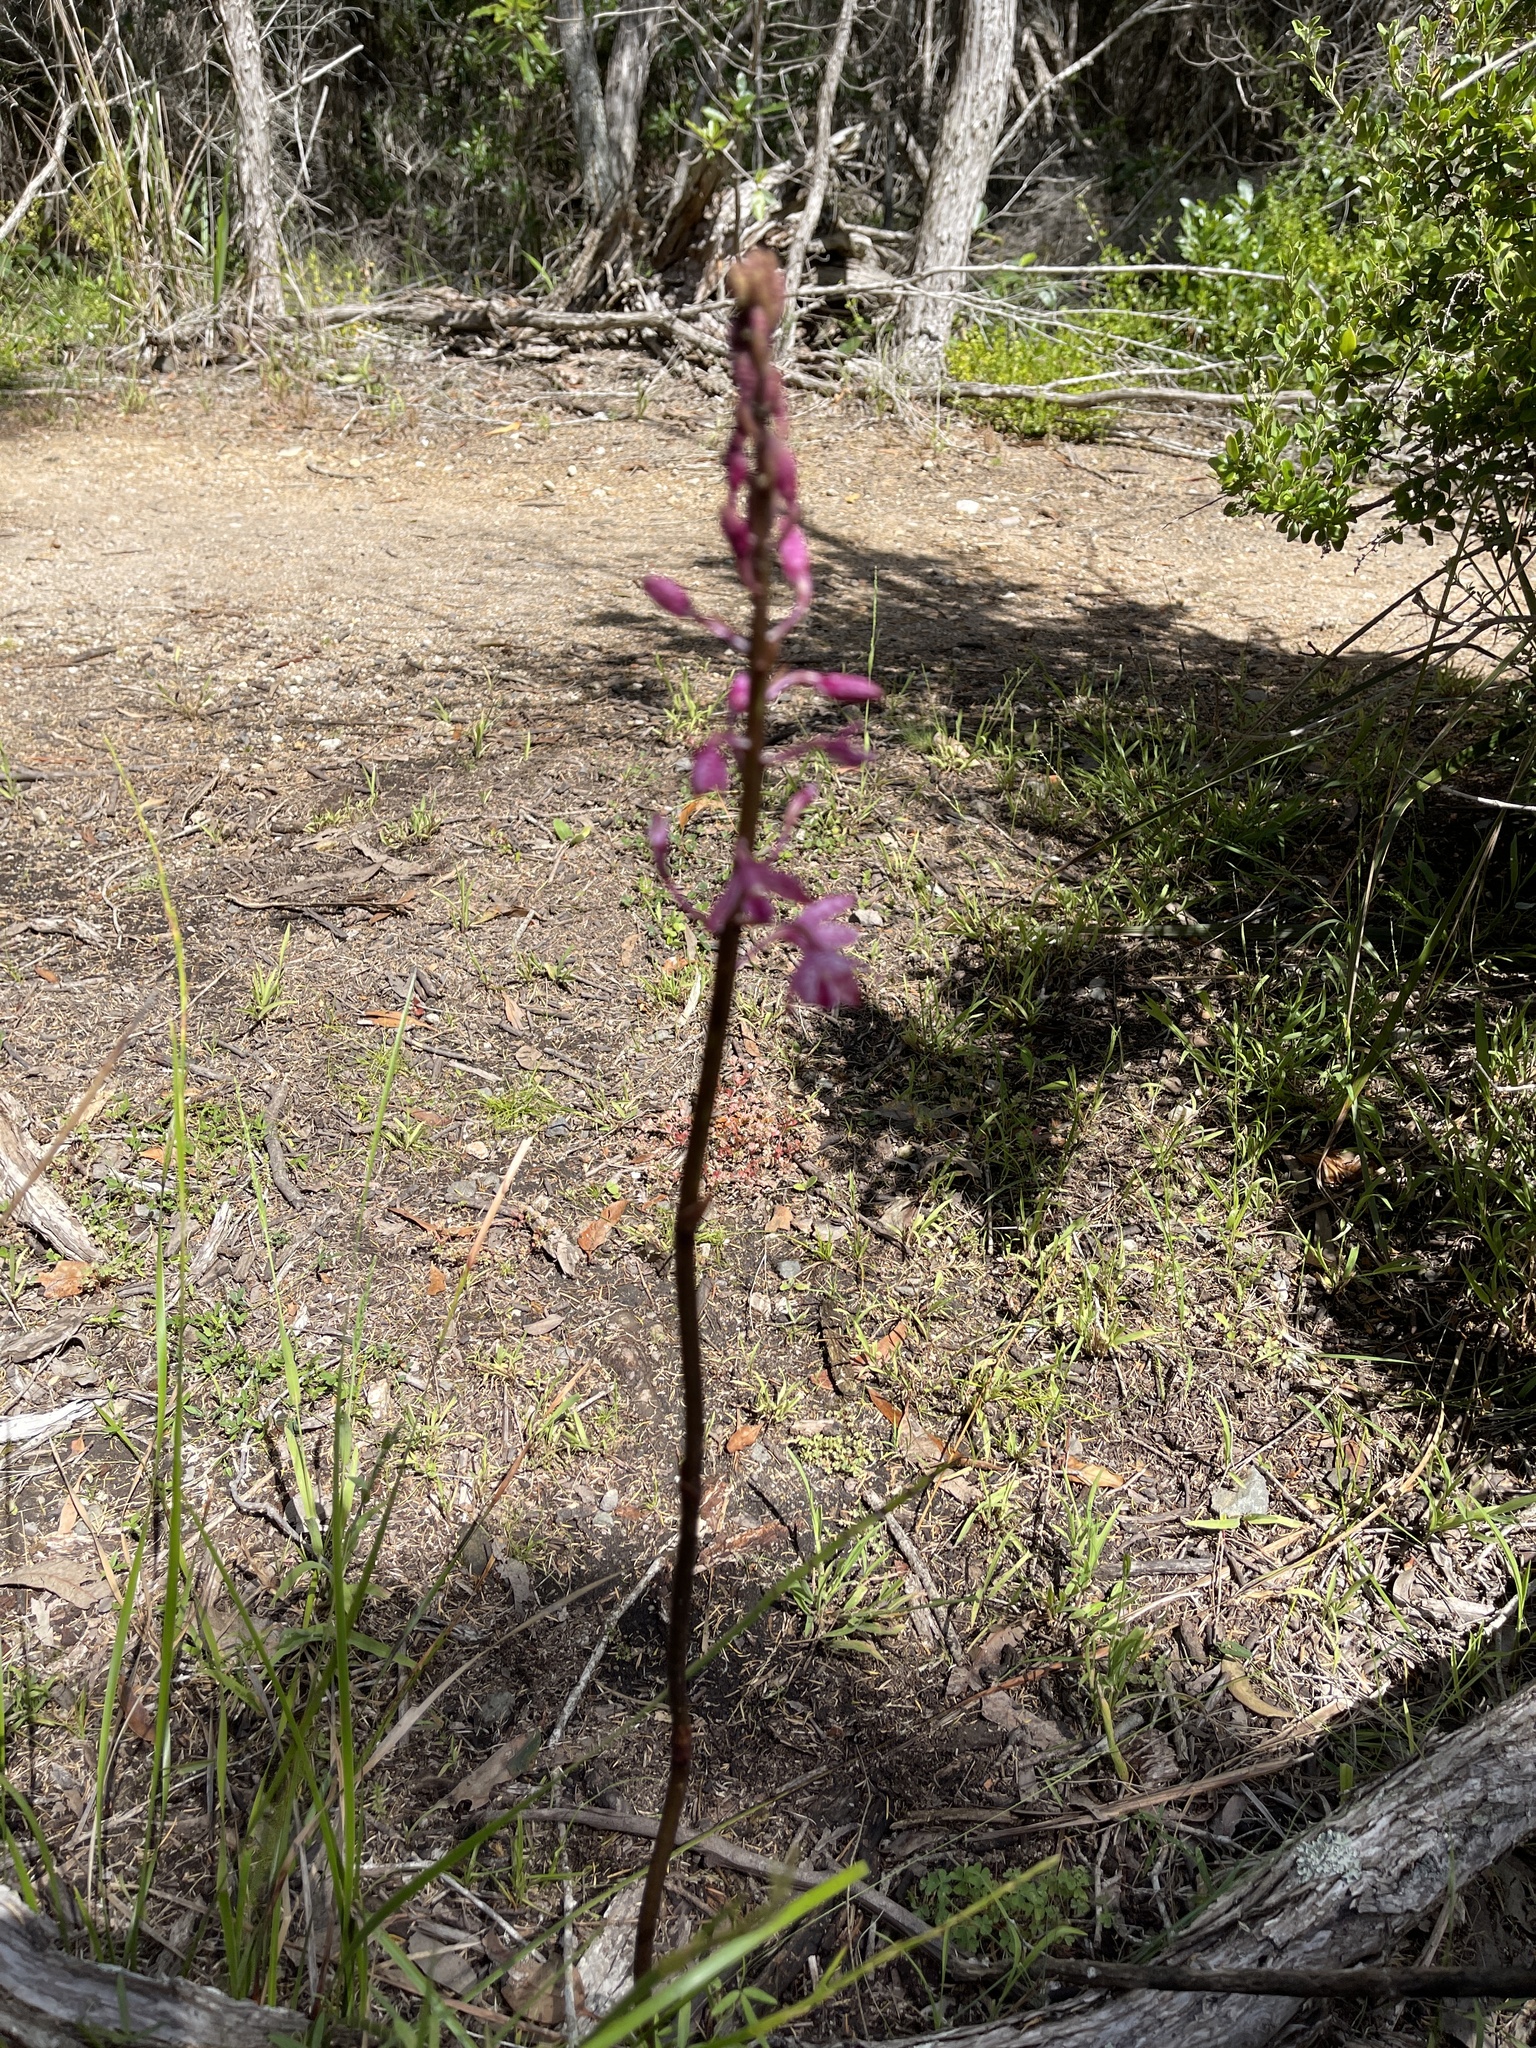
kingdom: Plantae
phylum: Tracheophyta
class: Liliopsida
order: Asparagales
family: Orchidaceae
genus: Dipodium
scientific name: Dipodium squamatum
